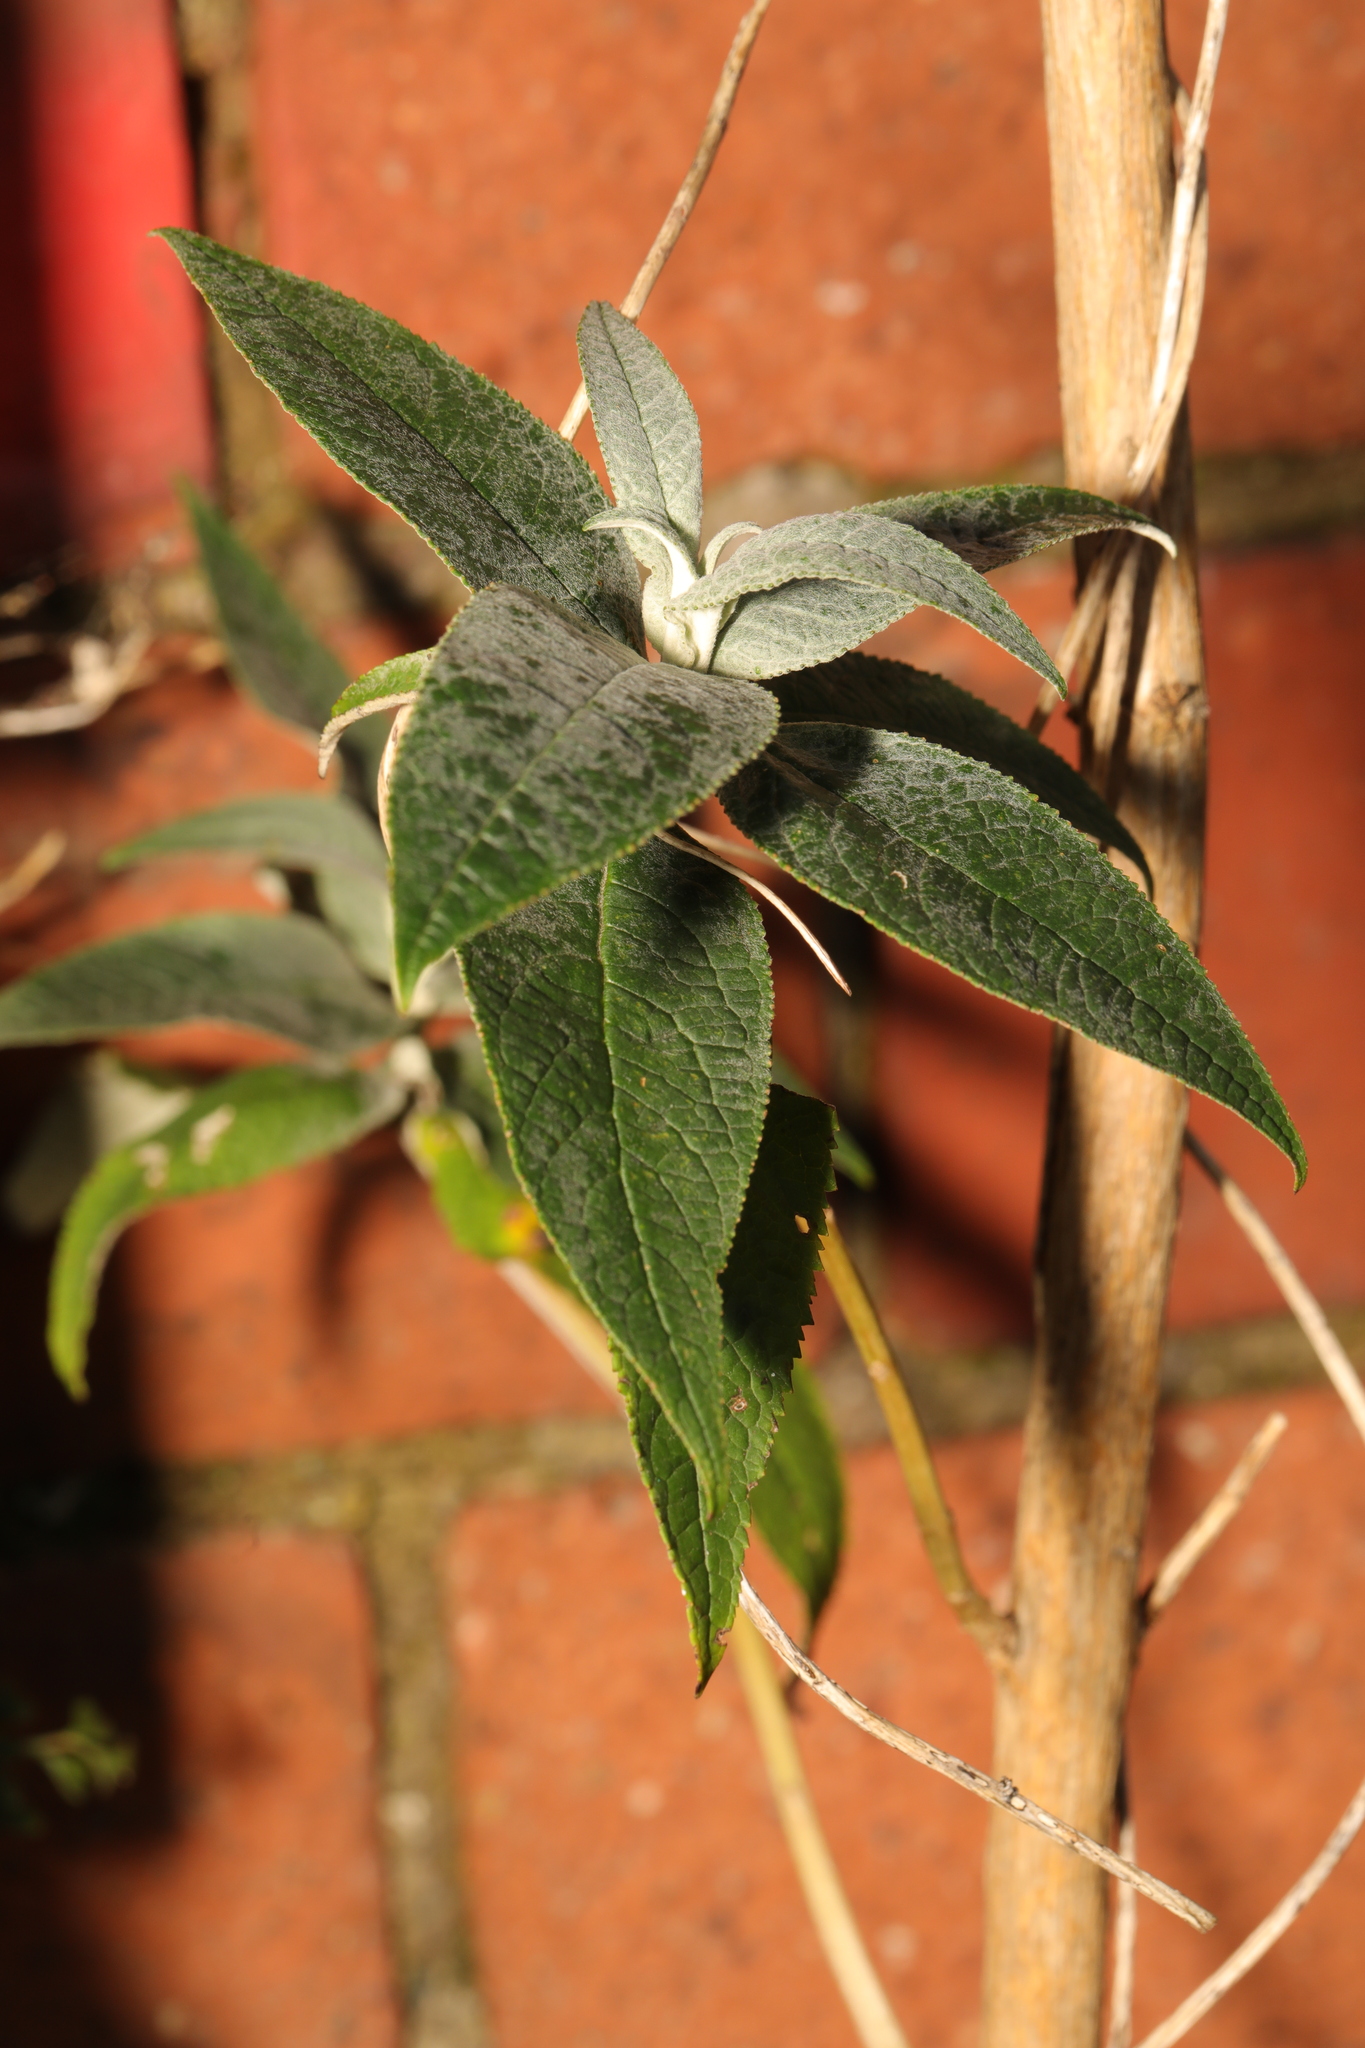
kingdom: Plantae
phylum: Tracheophyta
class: Magnoliopsida
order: Lamiales
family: Scrophulariaceae
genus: Buddleja
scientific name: Buddleja davidii
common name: Butterfly-bush
